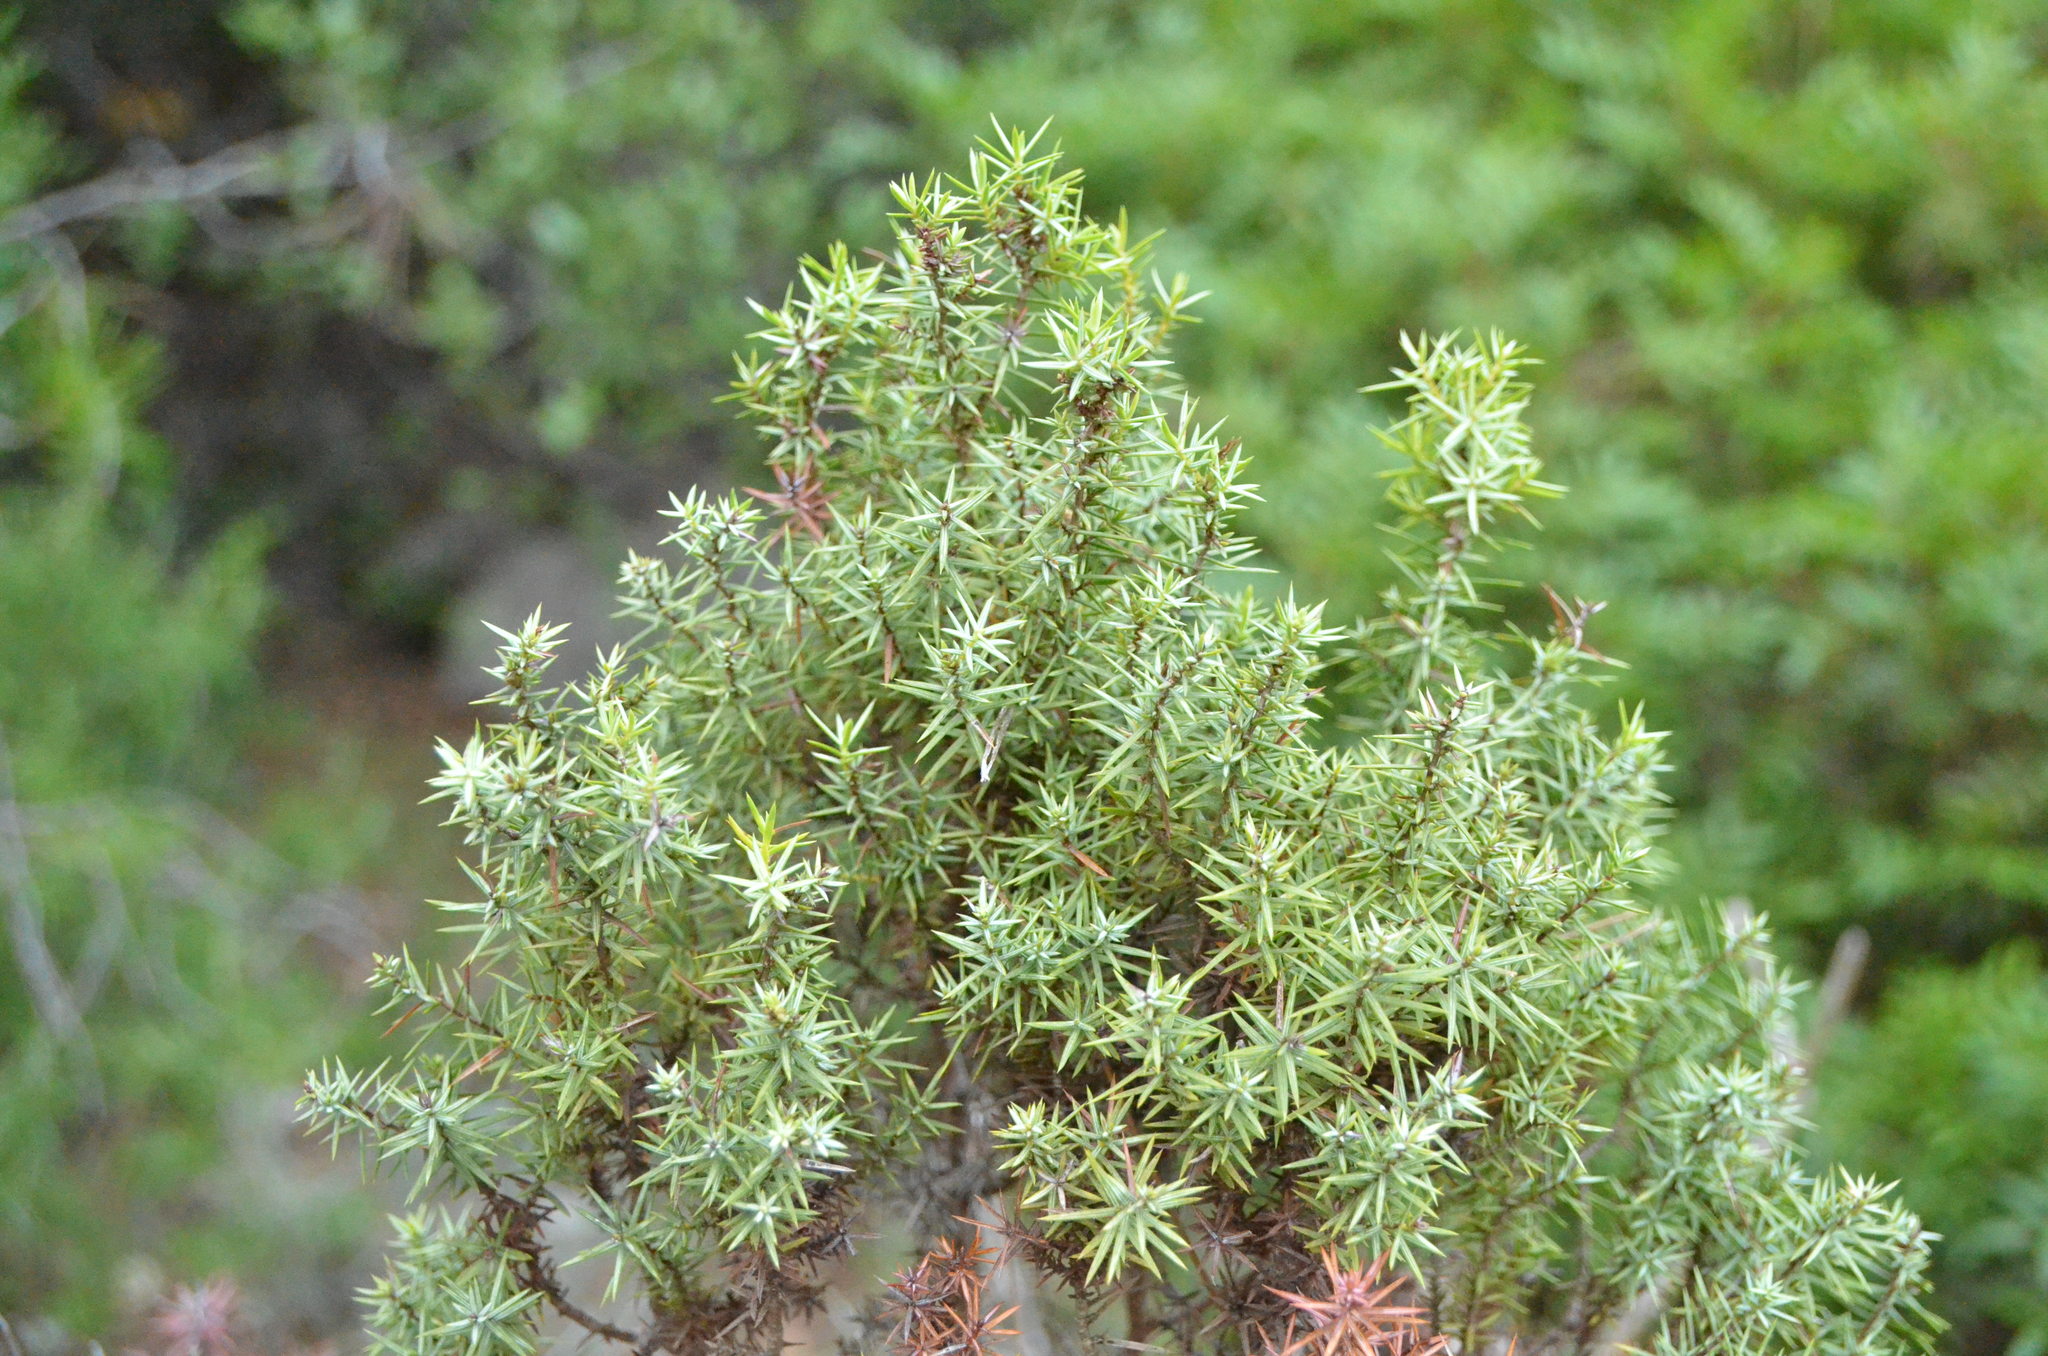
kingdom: Plantae
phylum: Tracheophyta
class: Pinopsida
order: Pinales
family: Cupressaceae
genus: Juniperus
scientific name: Juniperus oxycedrus
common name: Prickly juniper
